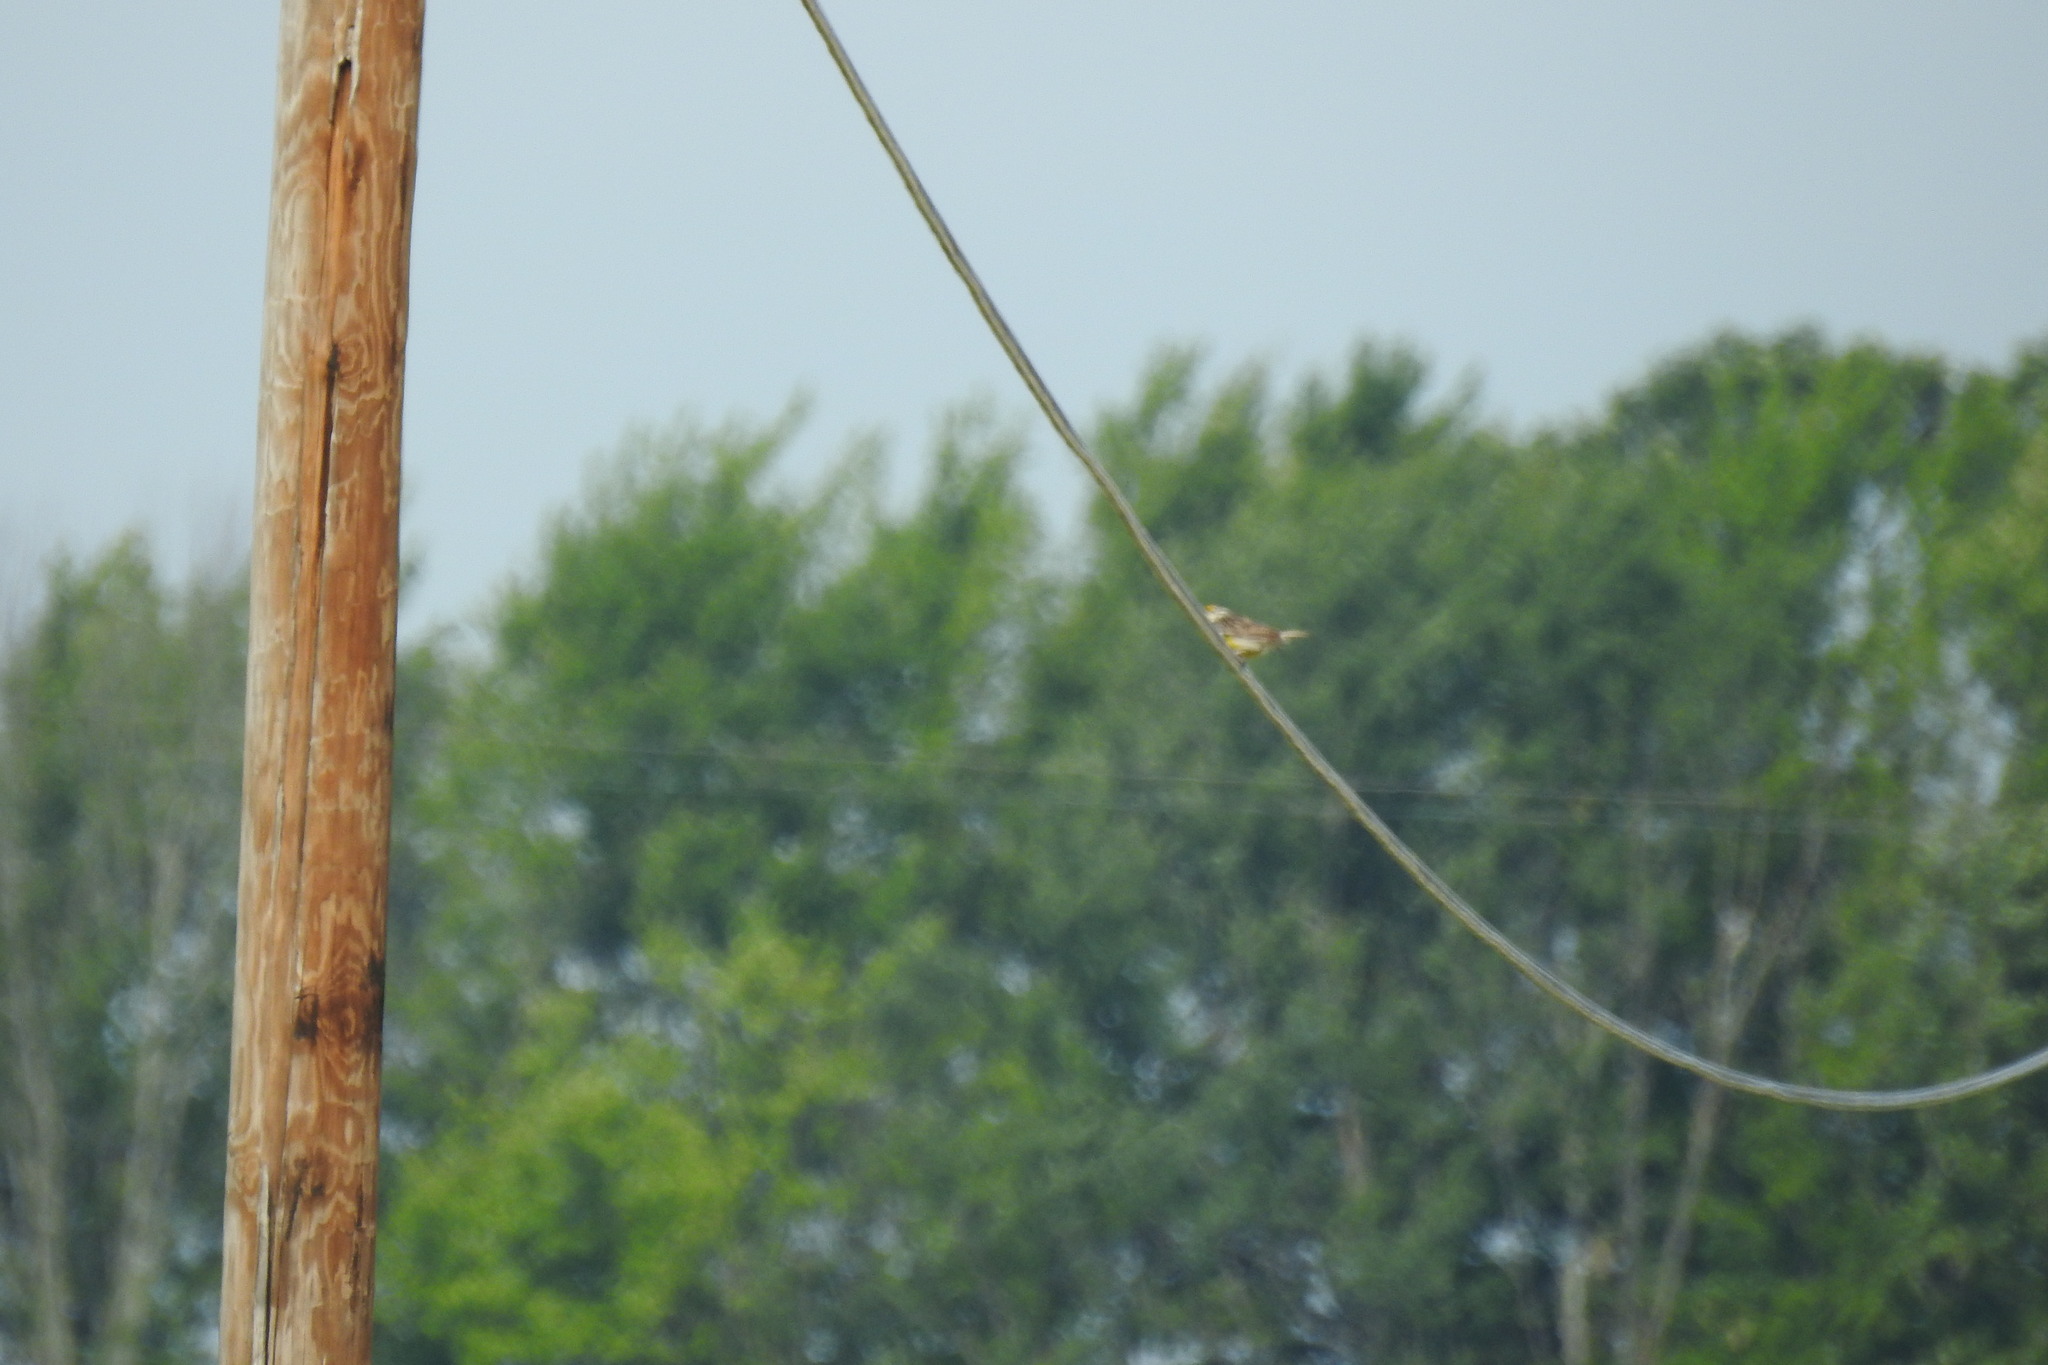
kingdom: Animalia
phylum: Chordata
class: Aves
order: Passeriformes
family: Icteridae
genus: Sturnella
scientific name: Sturnella magna
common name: Eastern meadowlark
